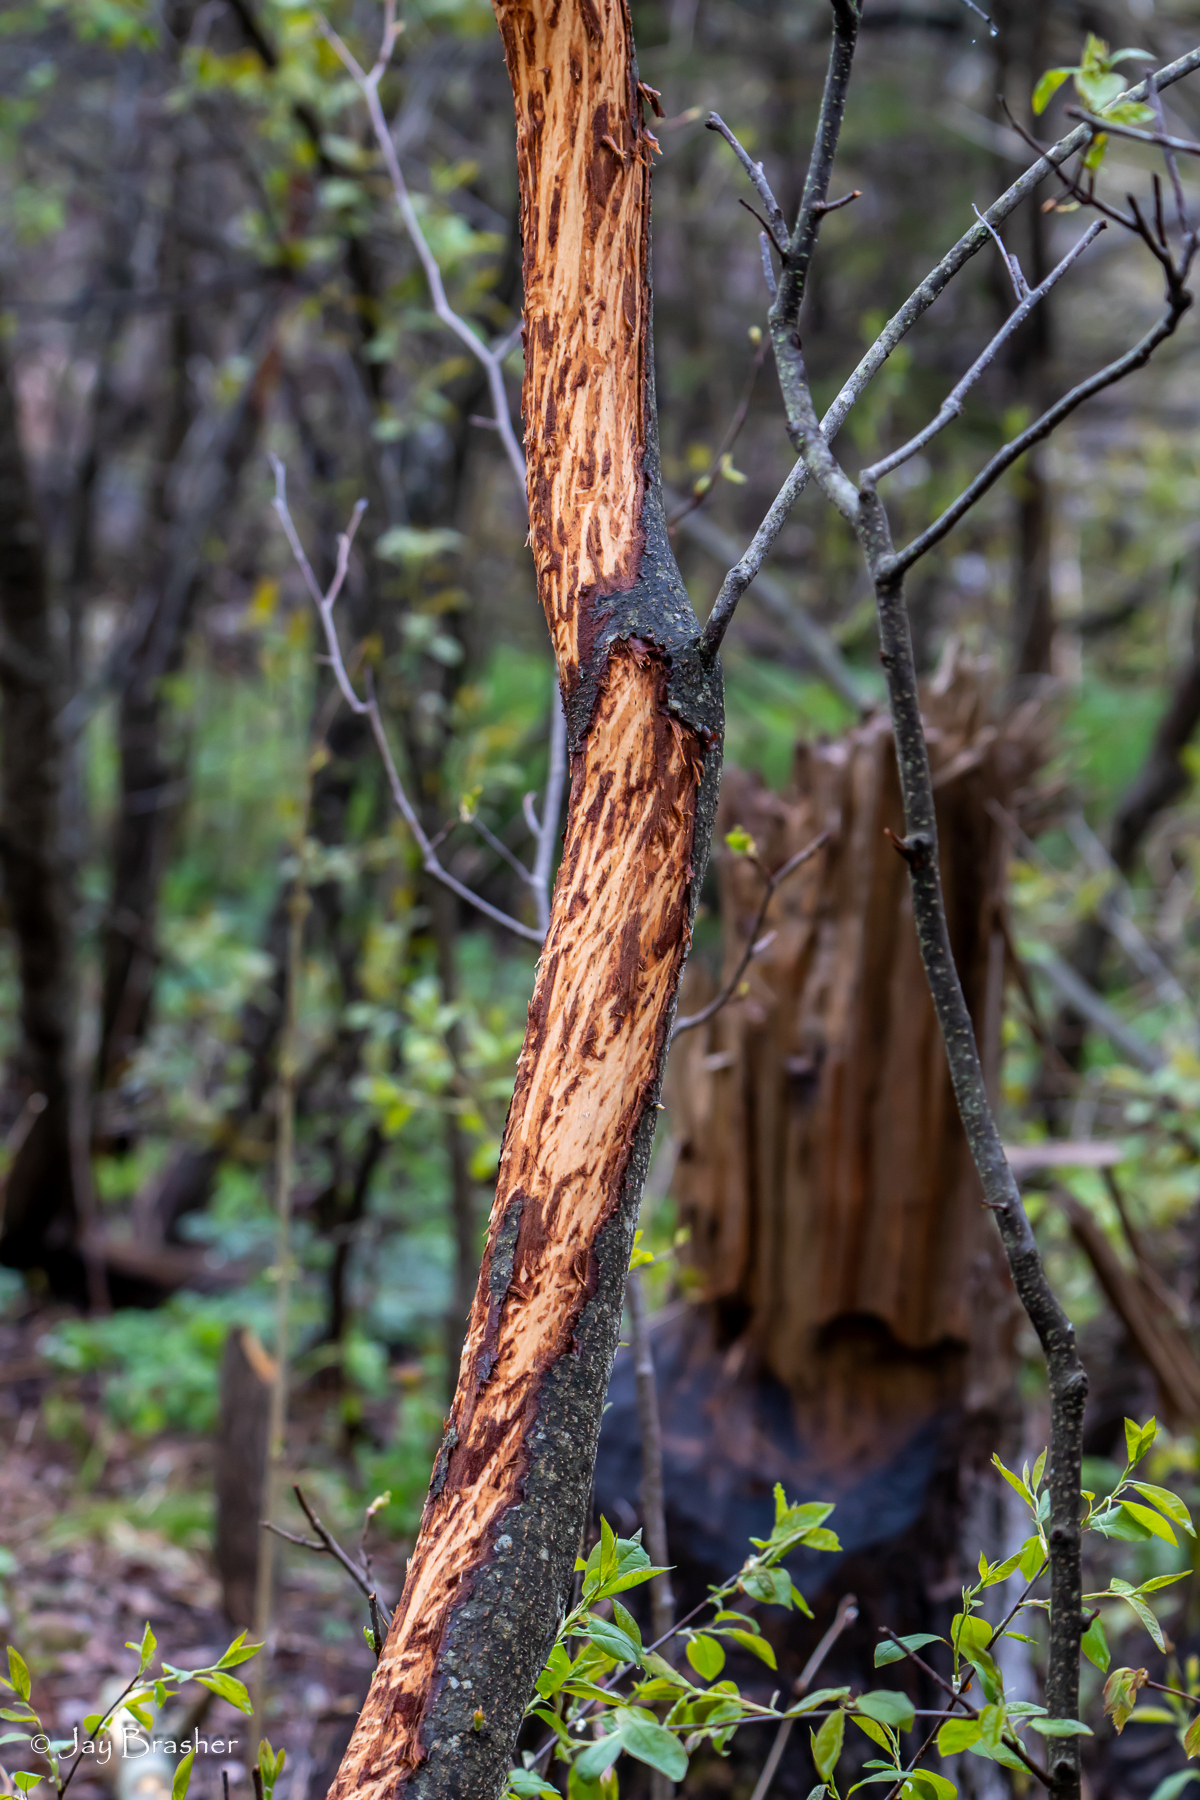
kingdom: Animalia
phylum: Chordata
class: Mammalia
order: Artiodactyla
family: Cervidae
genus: Alces
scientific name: Alces americanus
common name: Moose
